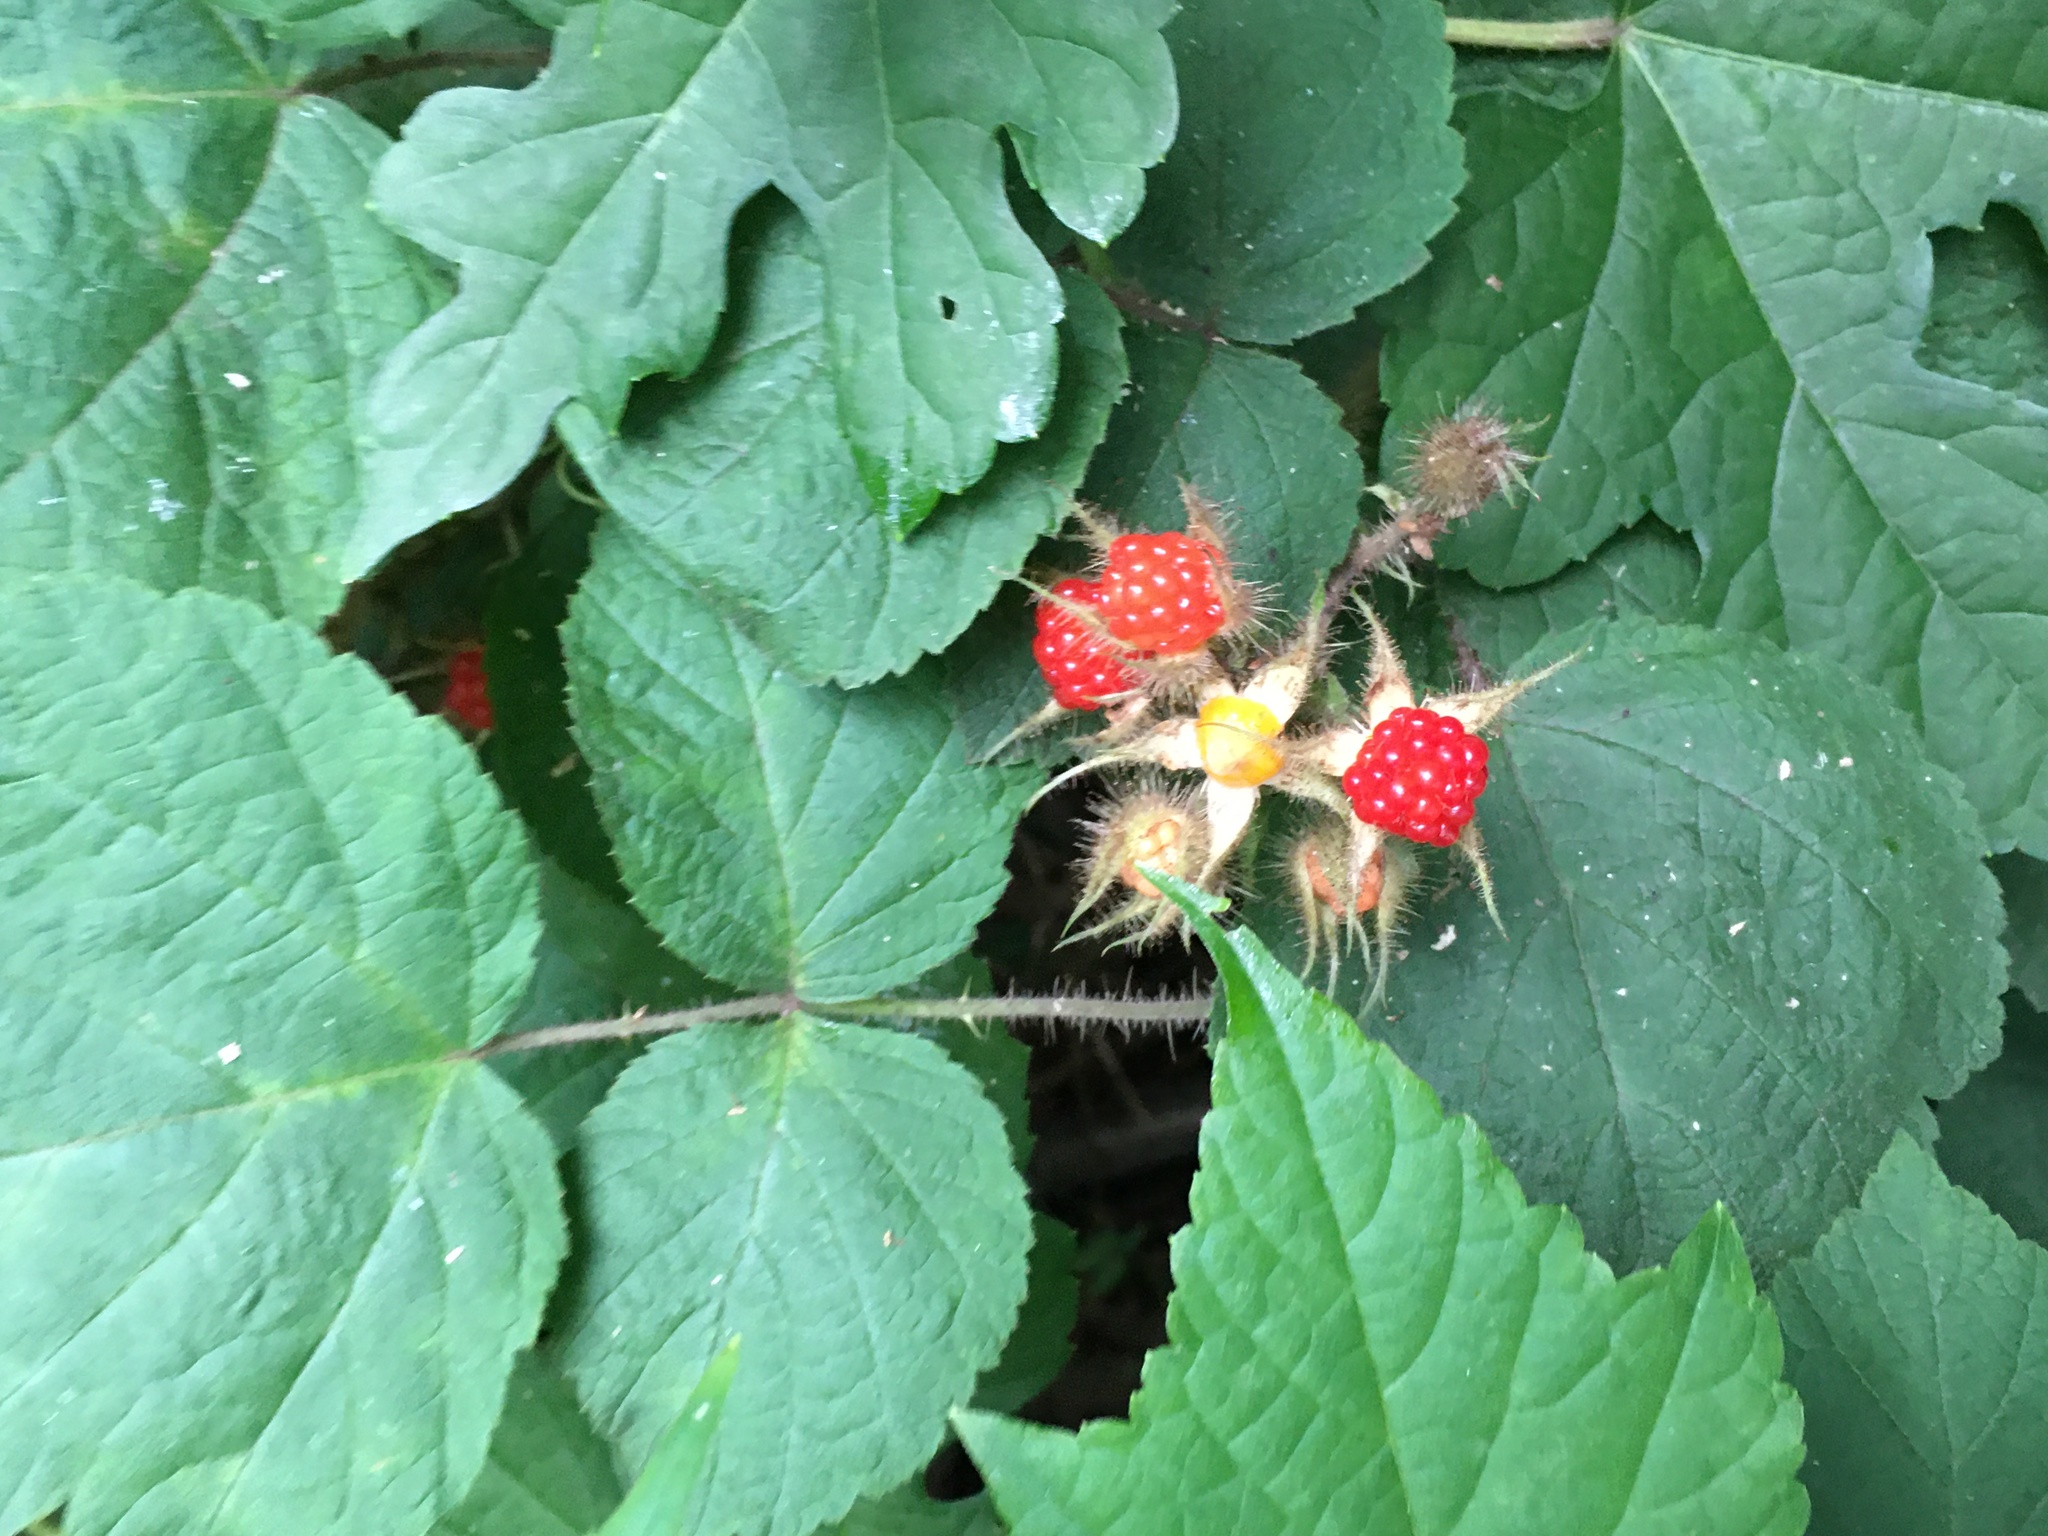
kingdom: Plantae
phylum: Tracheophyta
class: Magnoliopsida
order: Rosales
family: Rosaceae
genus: Rubus
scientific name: Rubus phoenicolasius
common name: Japanese wineberry
